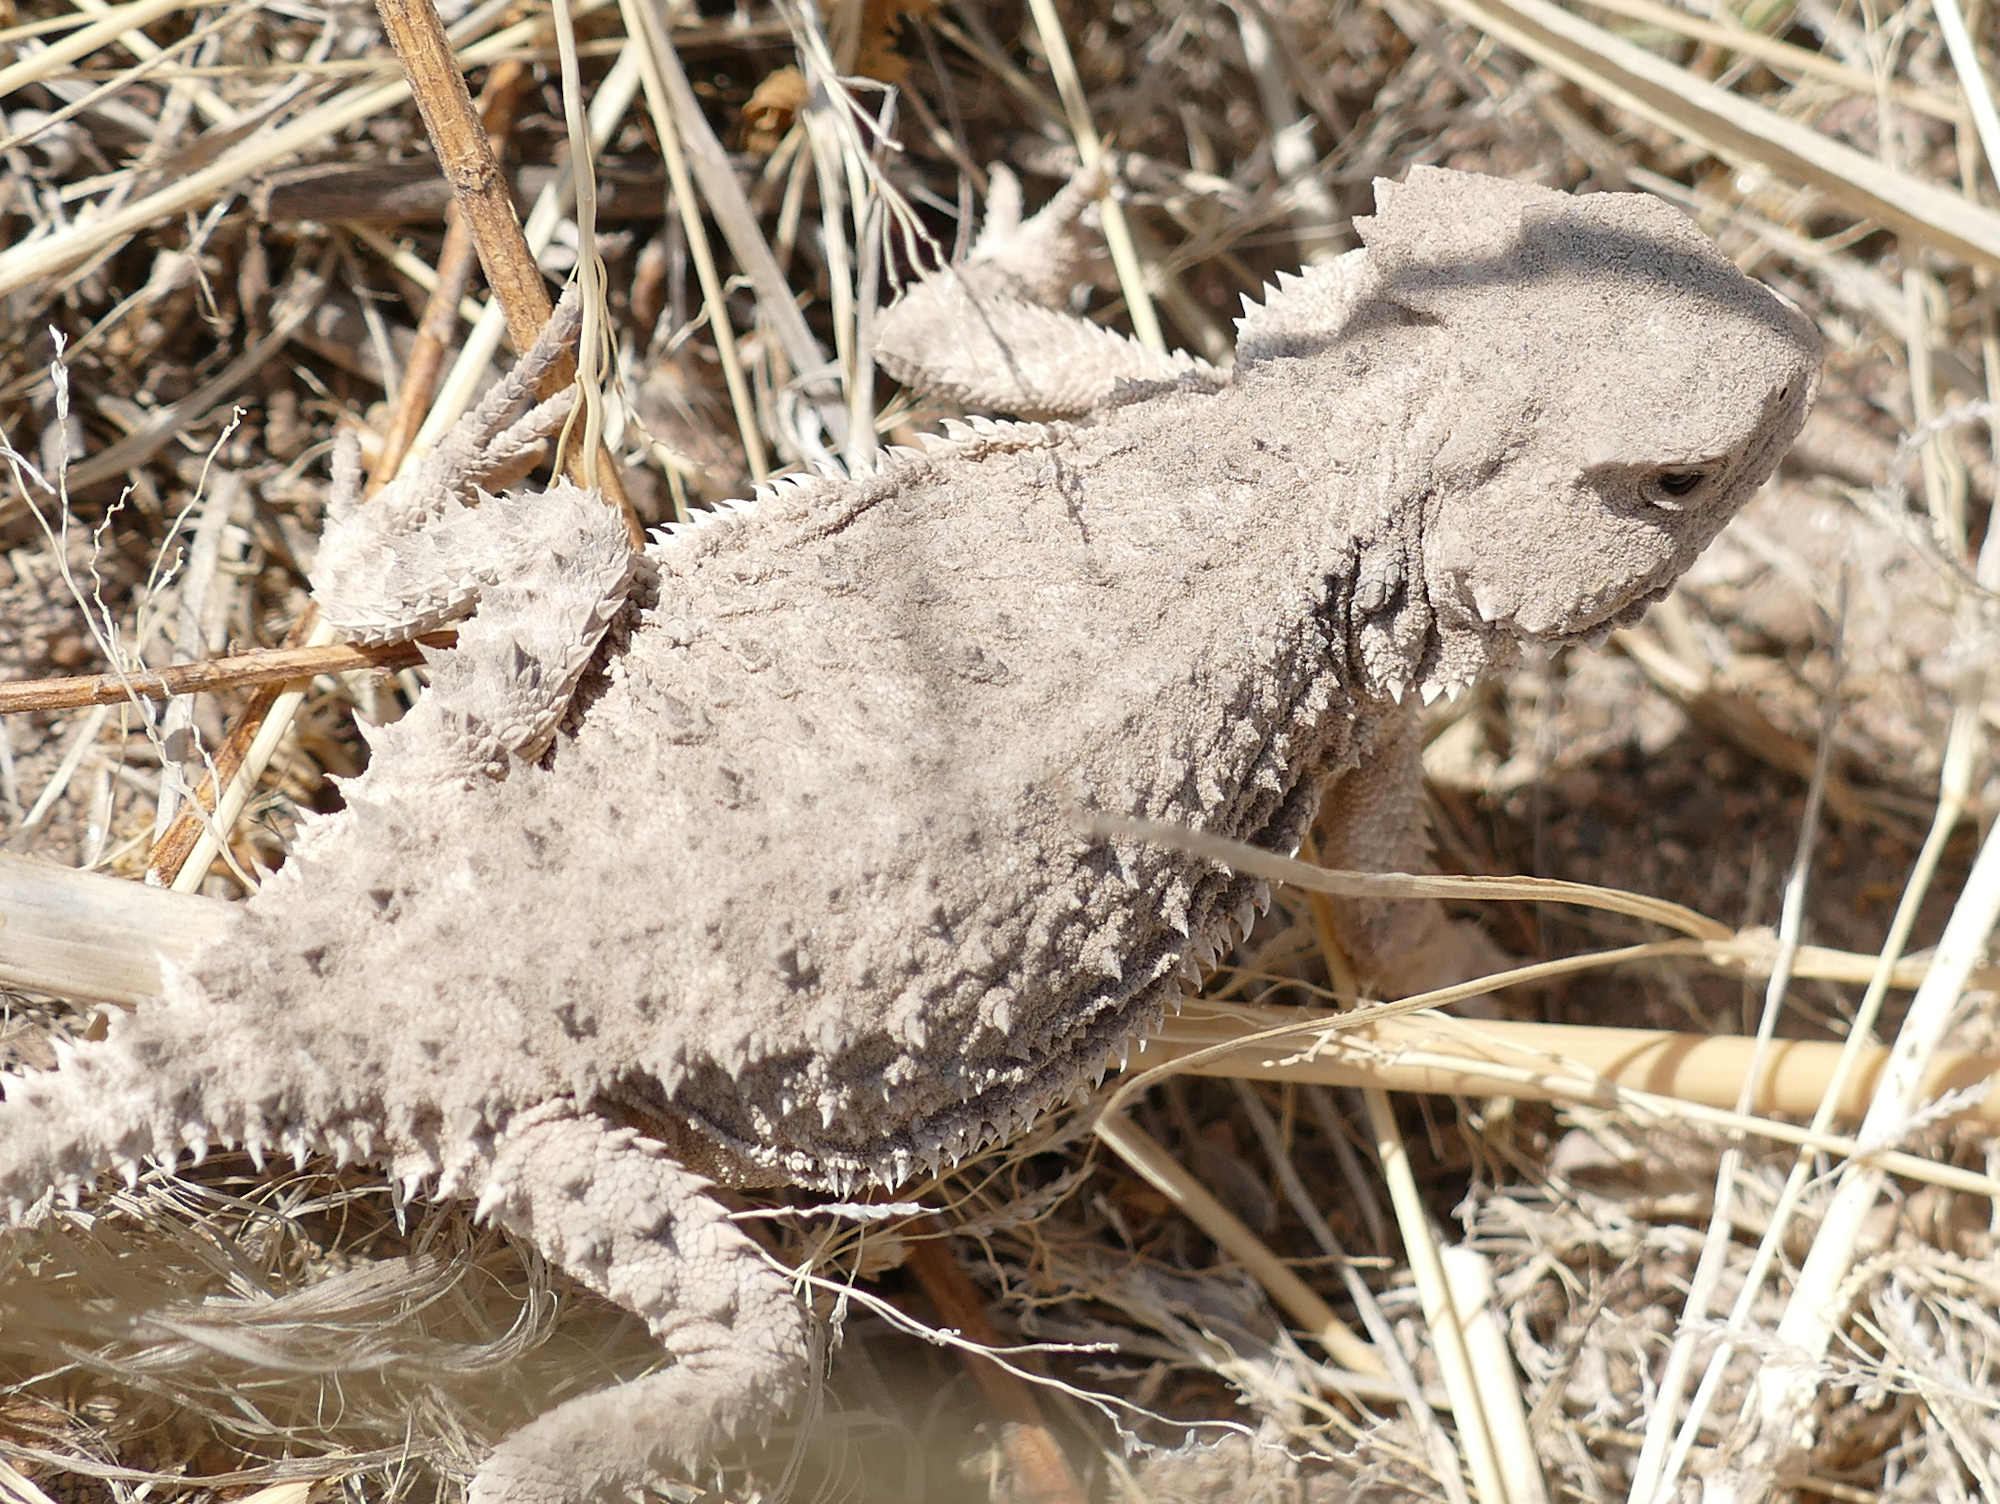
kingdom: Animalia
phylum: Chordata
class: Squamata
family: Phrynosomatidae
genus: Phrynosoma
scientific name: Phrynosoma hernandesi
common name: Greater short-horned lizard
